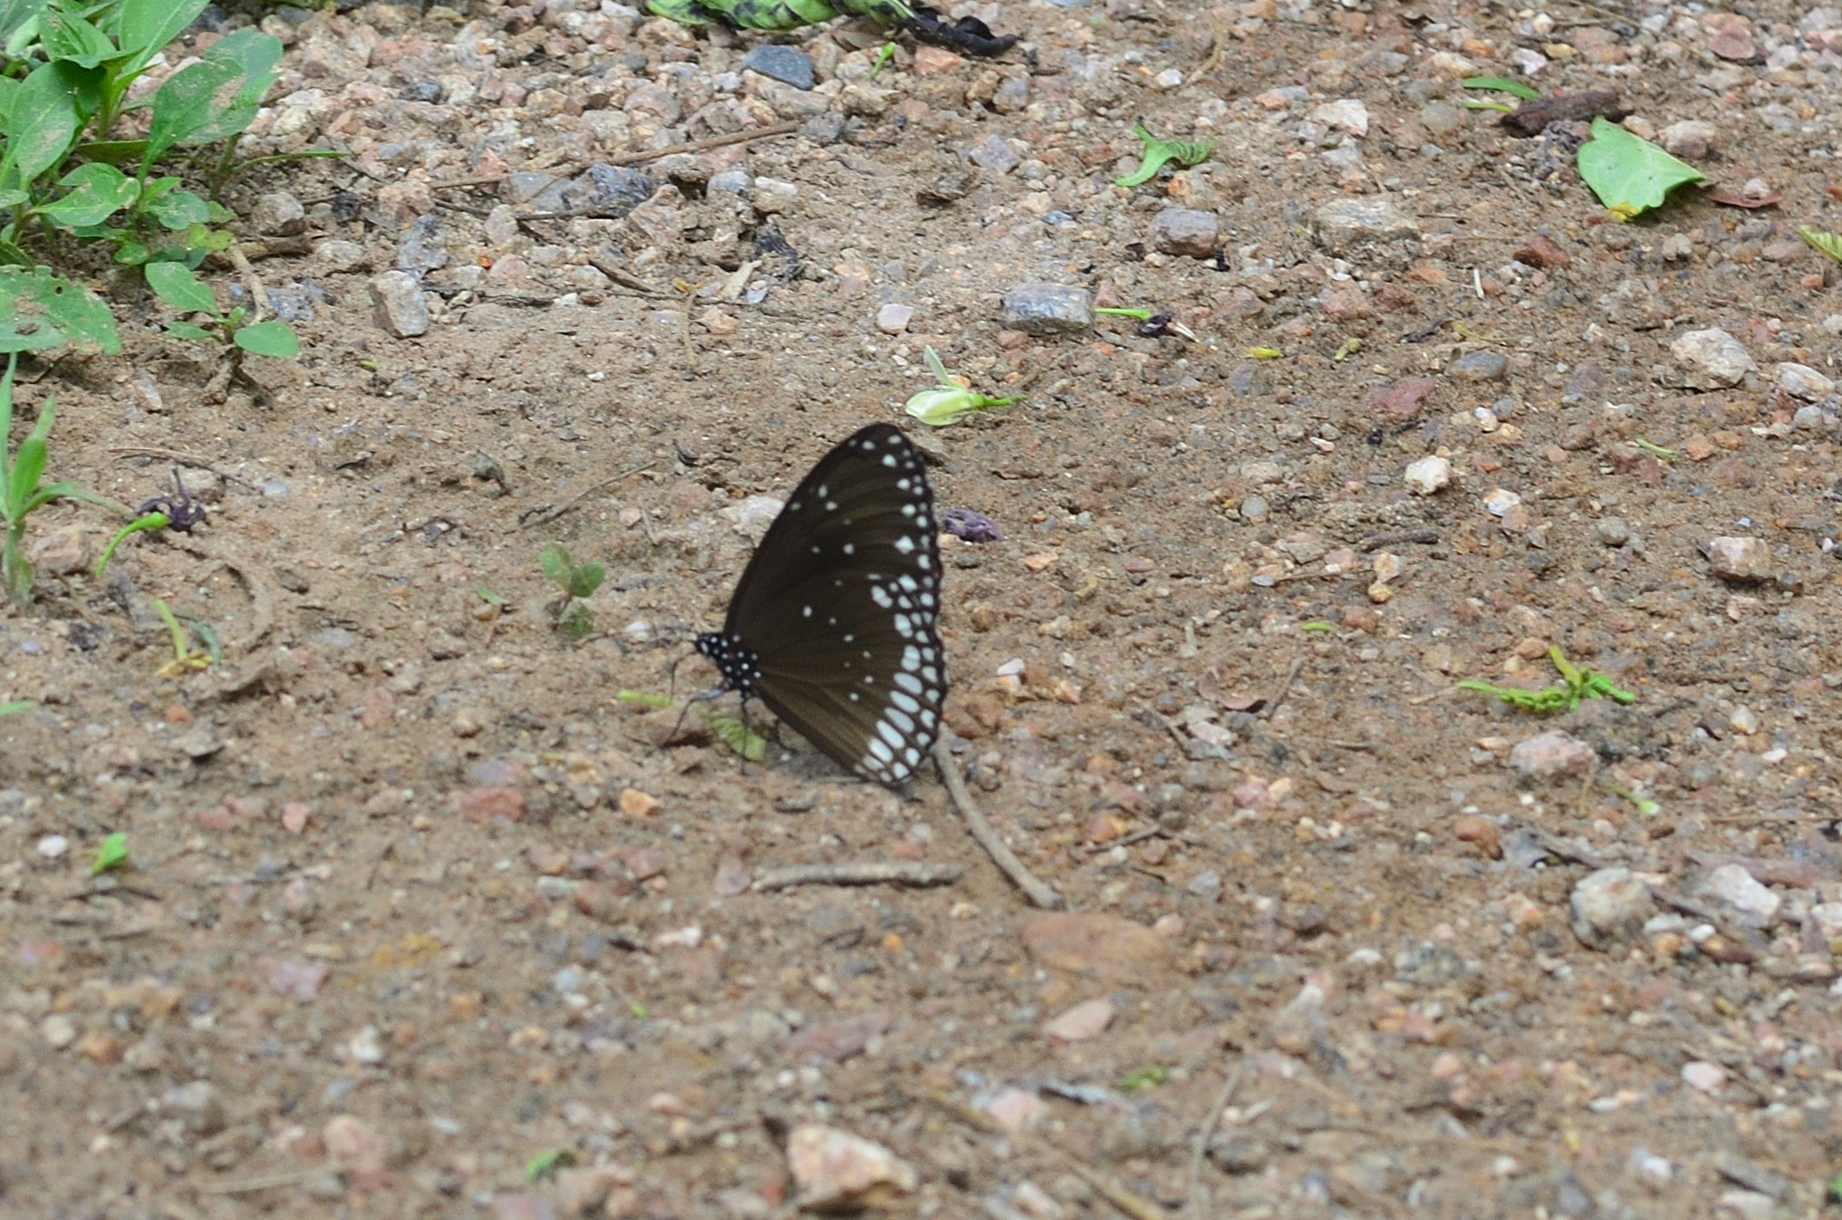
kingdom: Animalia
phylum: Arthropoda
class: Insecta
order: Lepidoptera
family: Nymphalidae
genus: Euploea
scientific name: Euploea sylvester
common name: Double-branded crow butterfly
